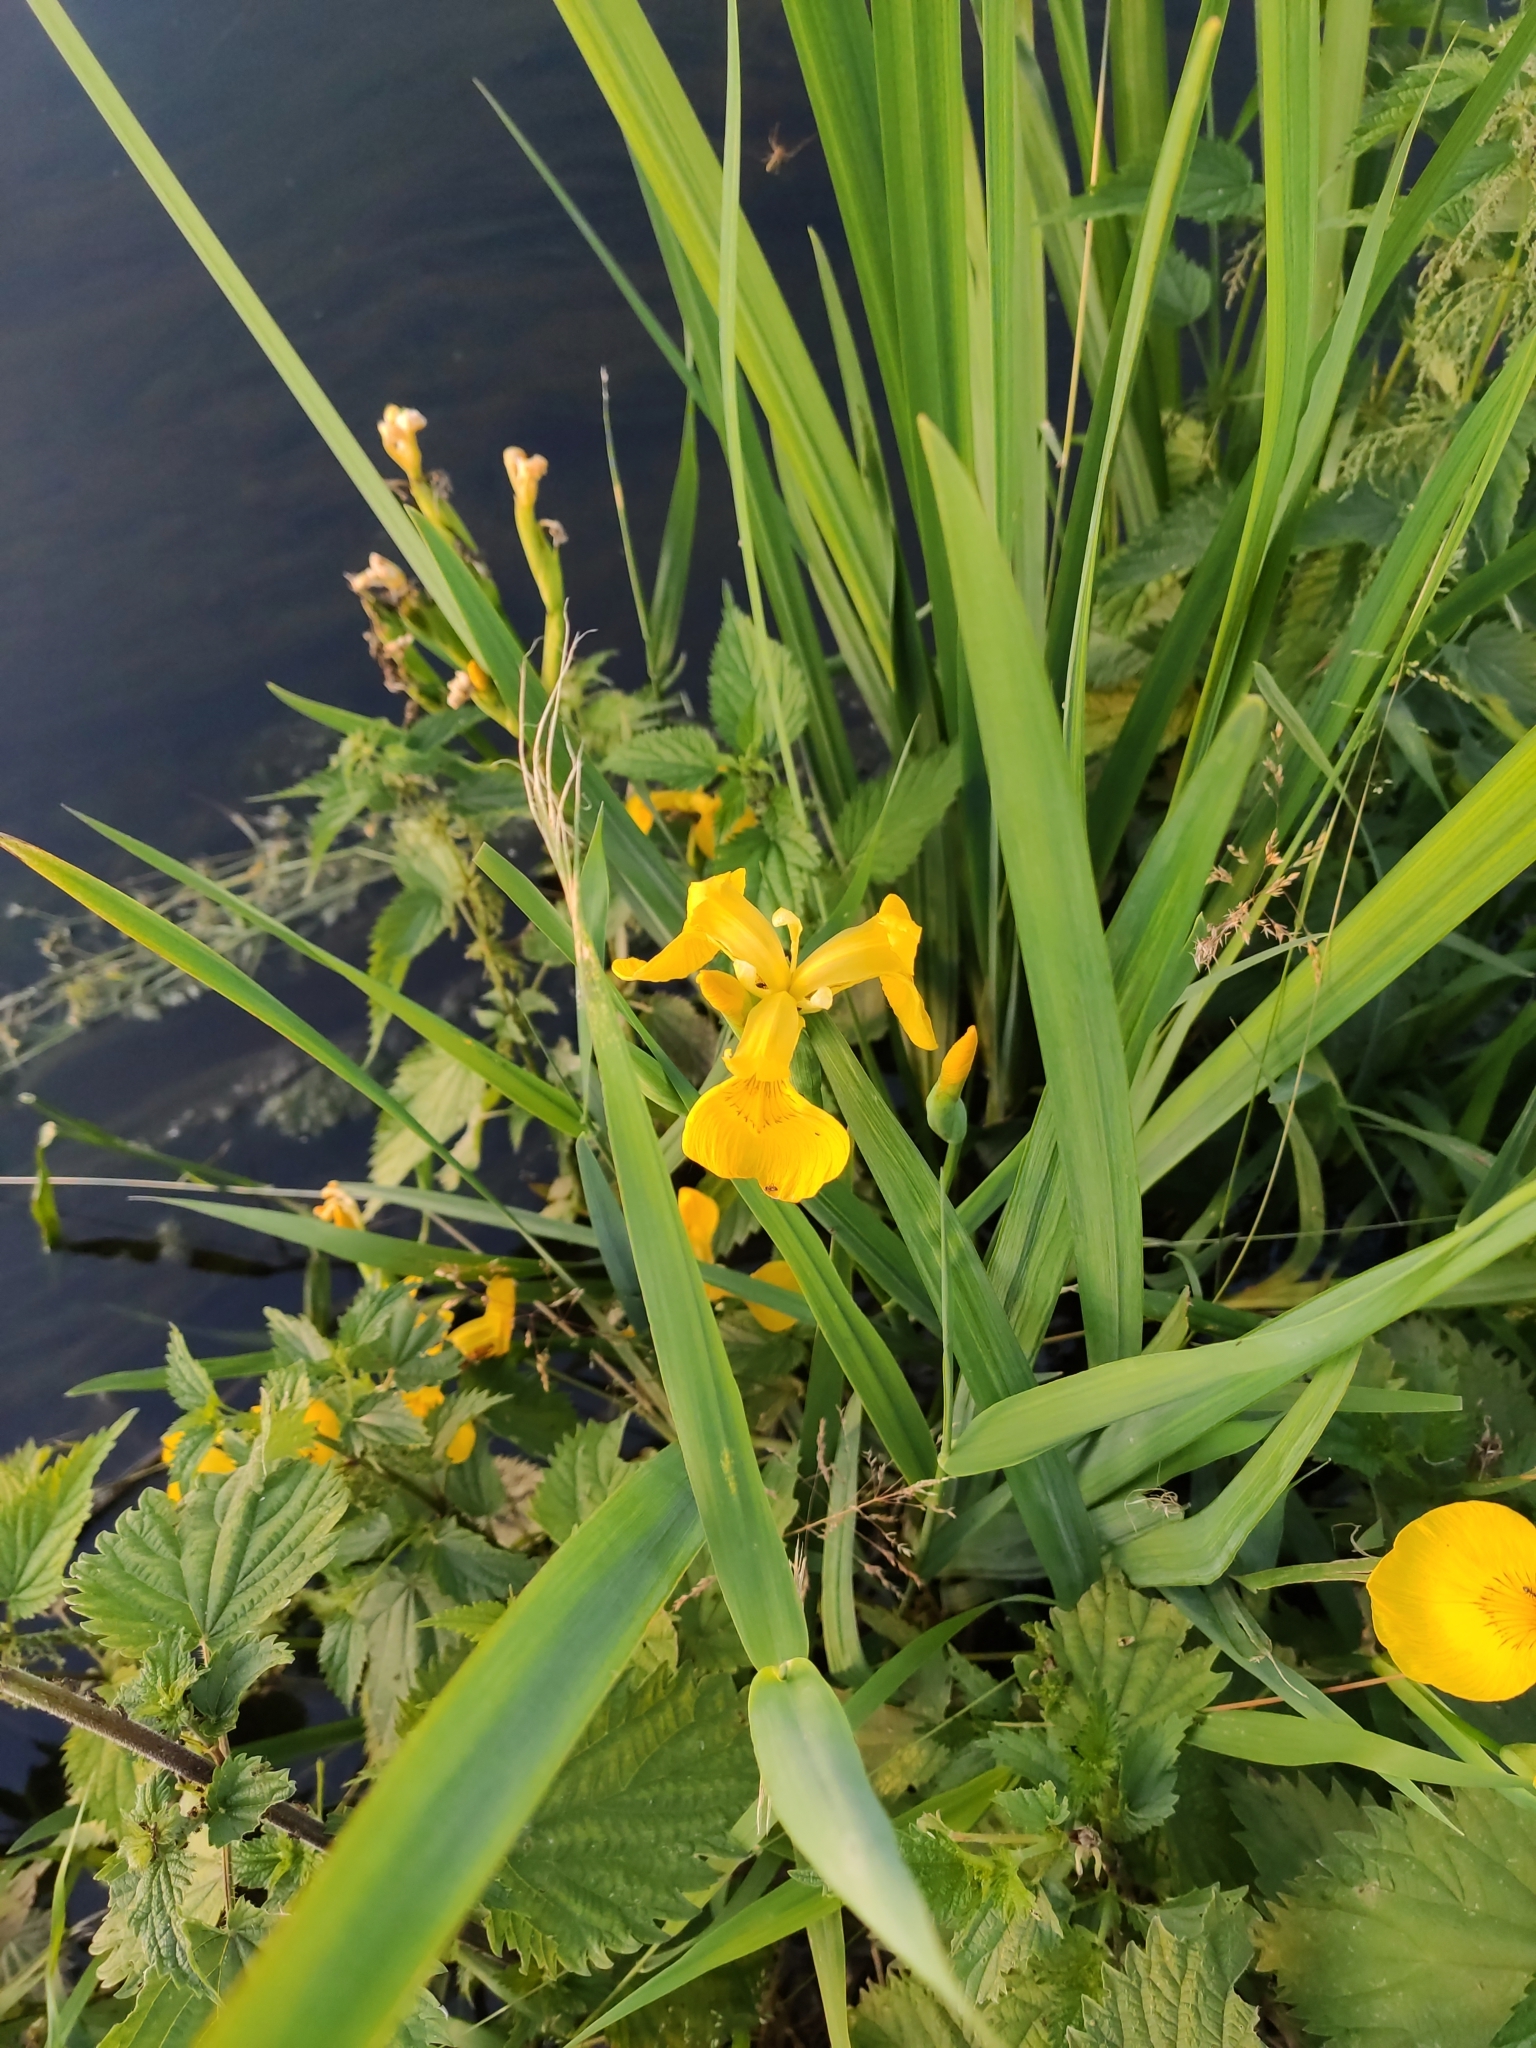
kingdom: Plantae
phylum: Tracheophyta
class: Liliopsida
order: Asparagales
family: Iridaceae
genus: Iris
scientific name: Iris pseudacorus
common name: Yellow flag
